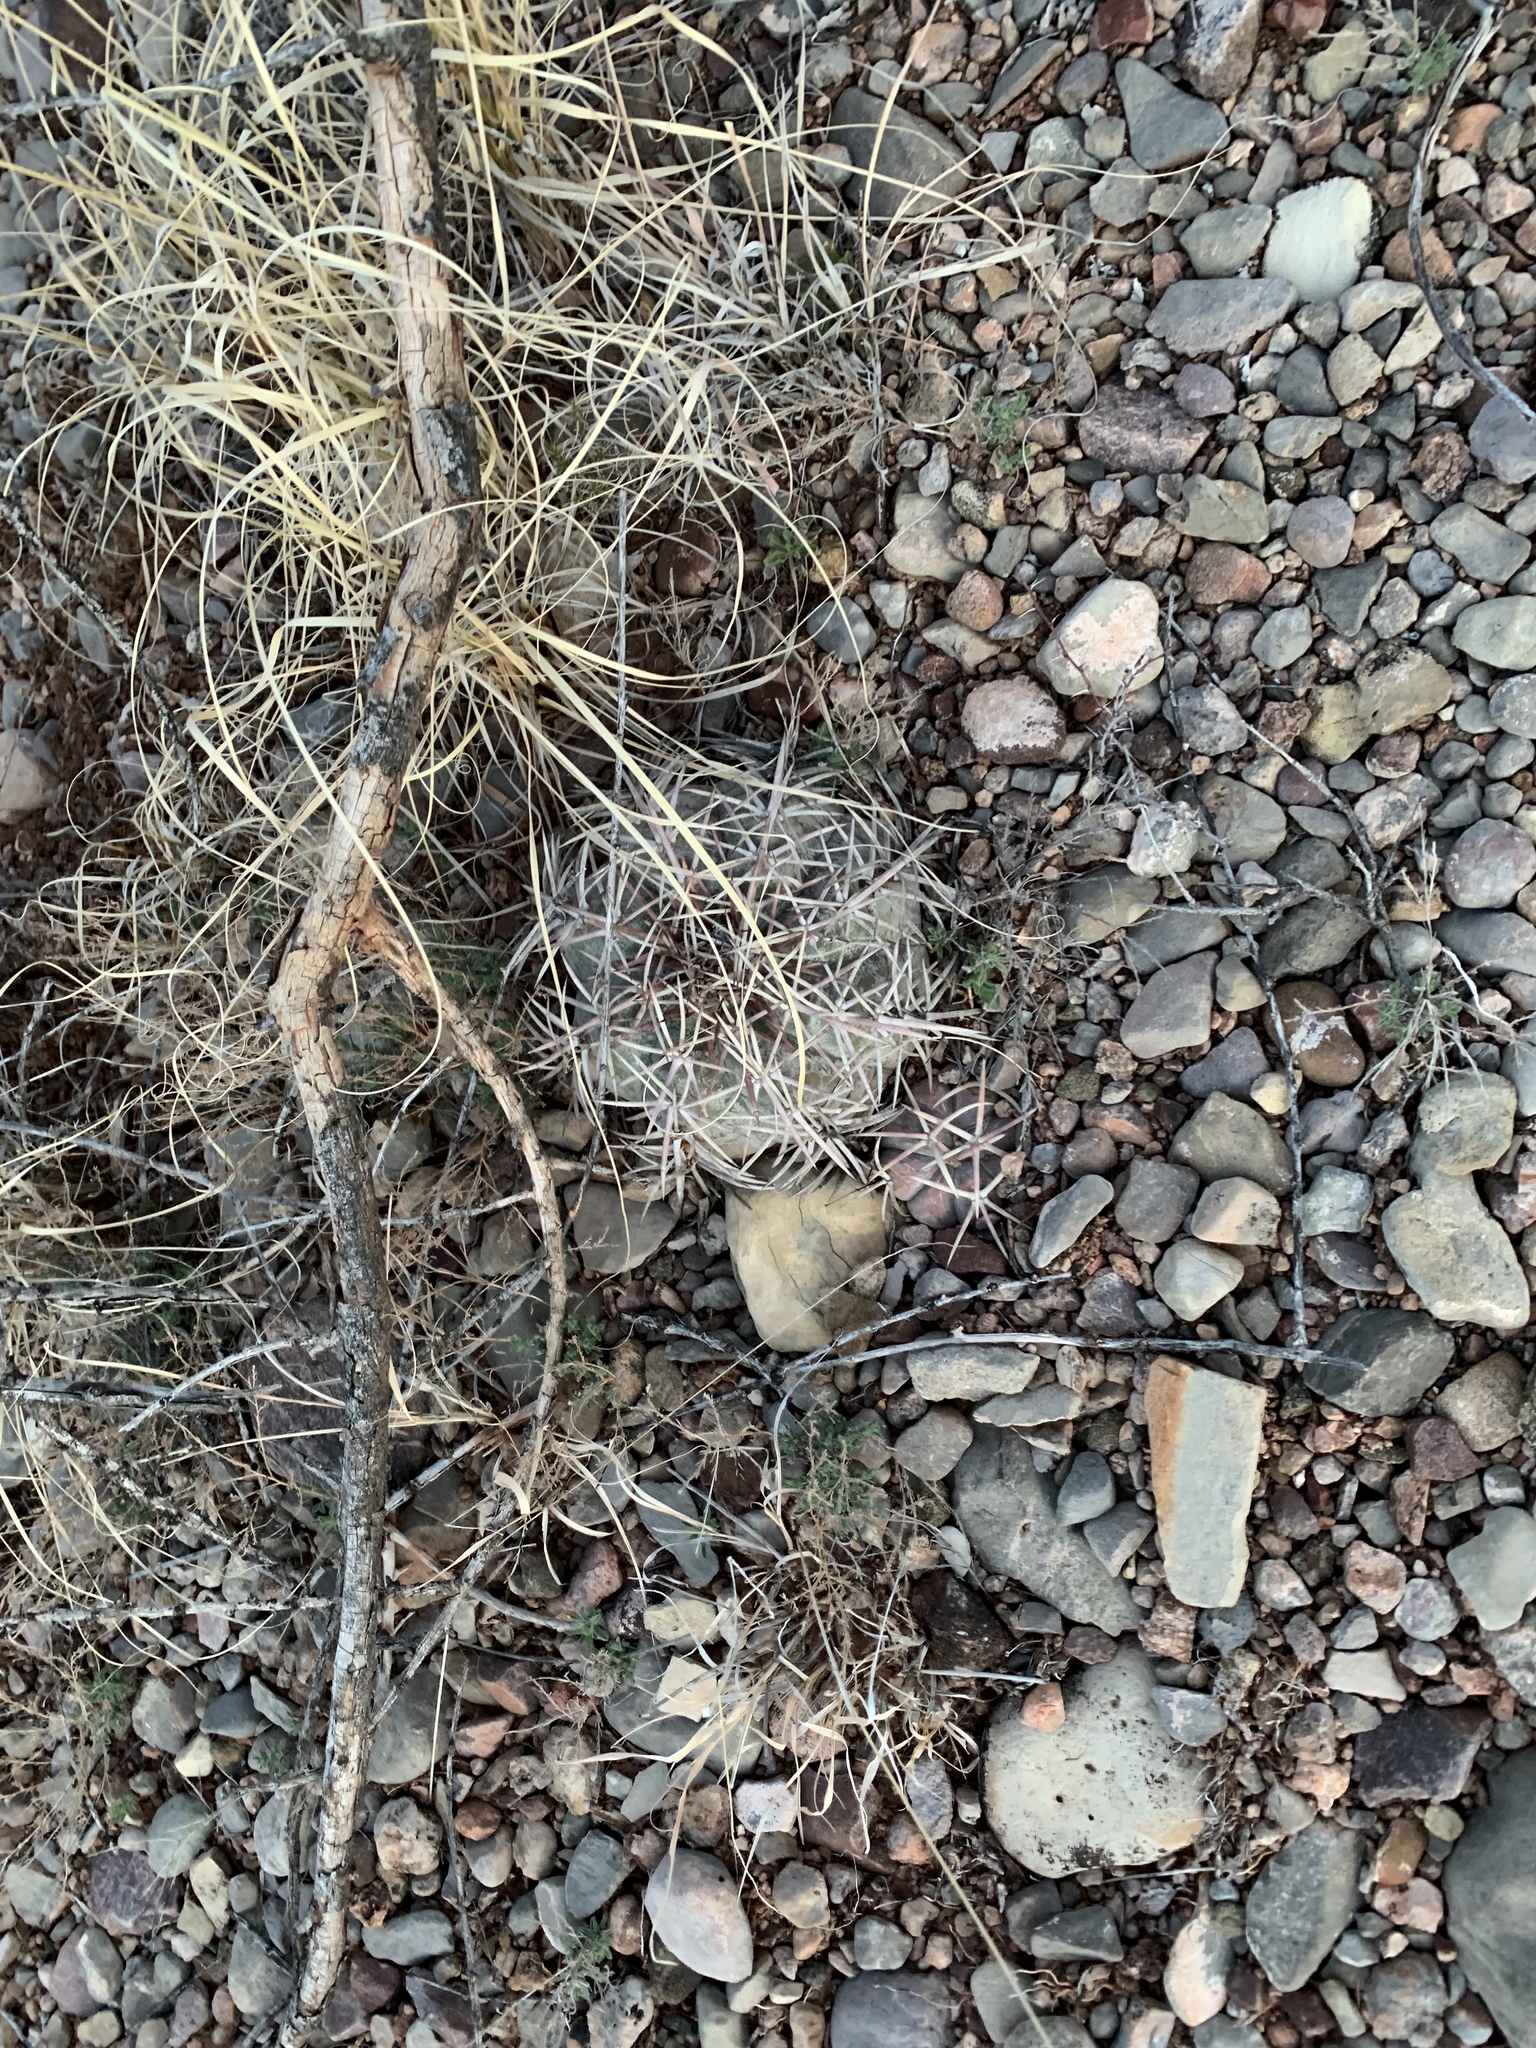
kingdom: Plantae
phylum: Tracheophyta
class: Magnoliopsida
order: Caryophyllales
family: Cactaceae
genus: Echinocactus
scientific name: Echinocactus horizonthalonius
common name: Devilshead
